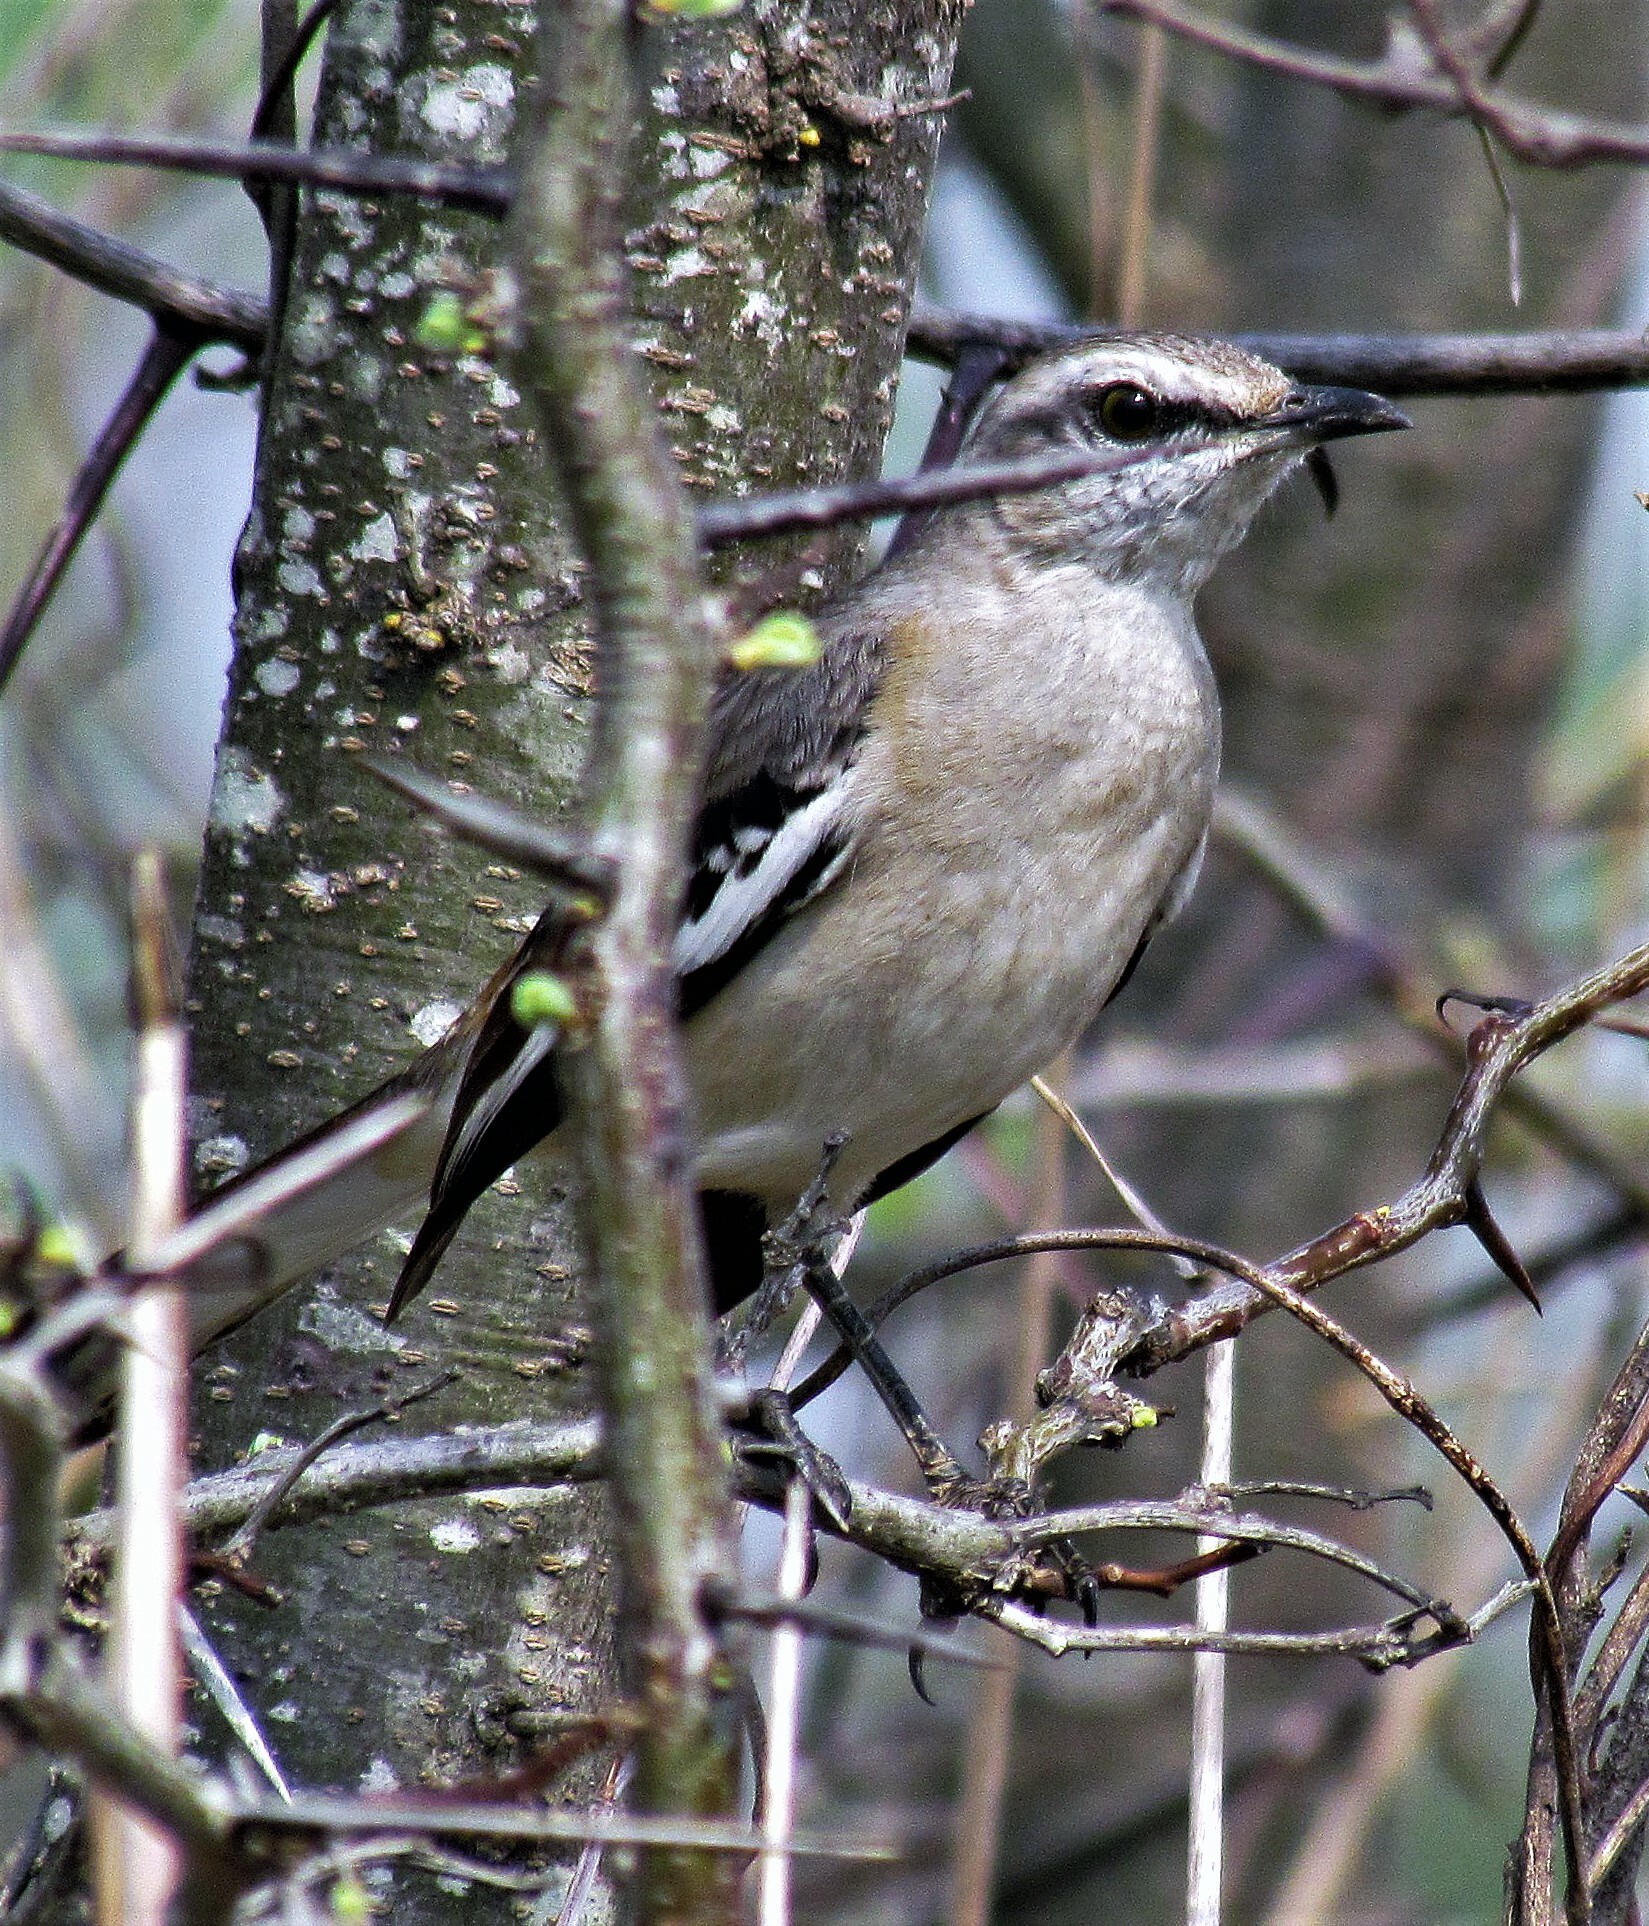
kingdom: Animalia
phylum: Chordata
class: Aves
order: Passeriformes
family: Mimidae
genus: Mimus
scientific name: Mimus triurus
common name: White-banded mockingbird
